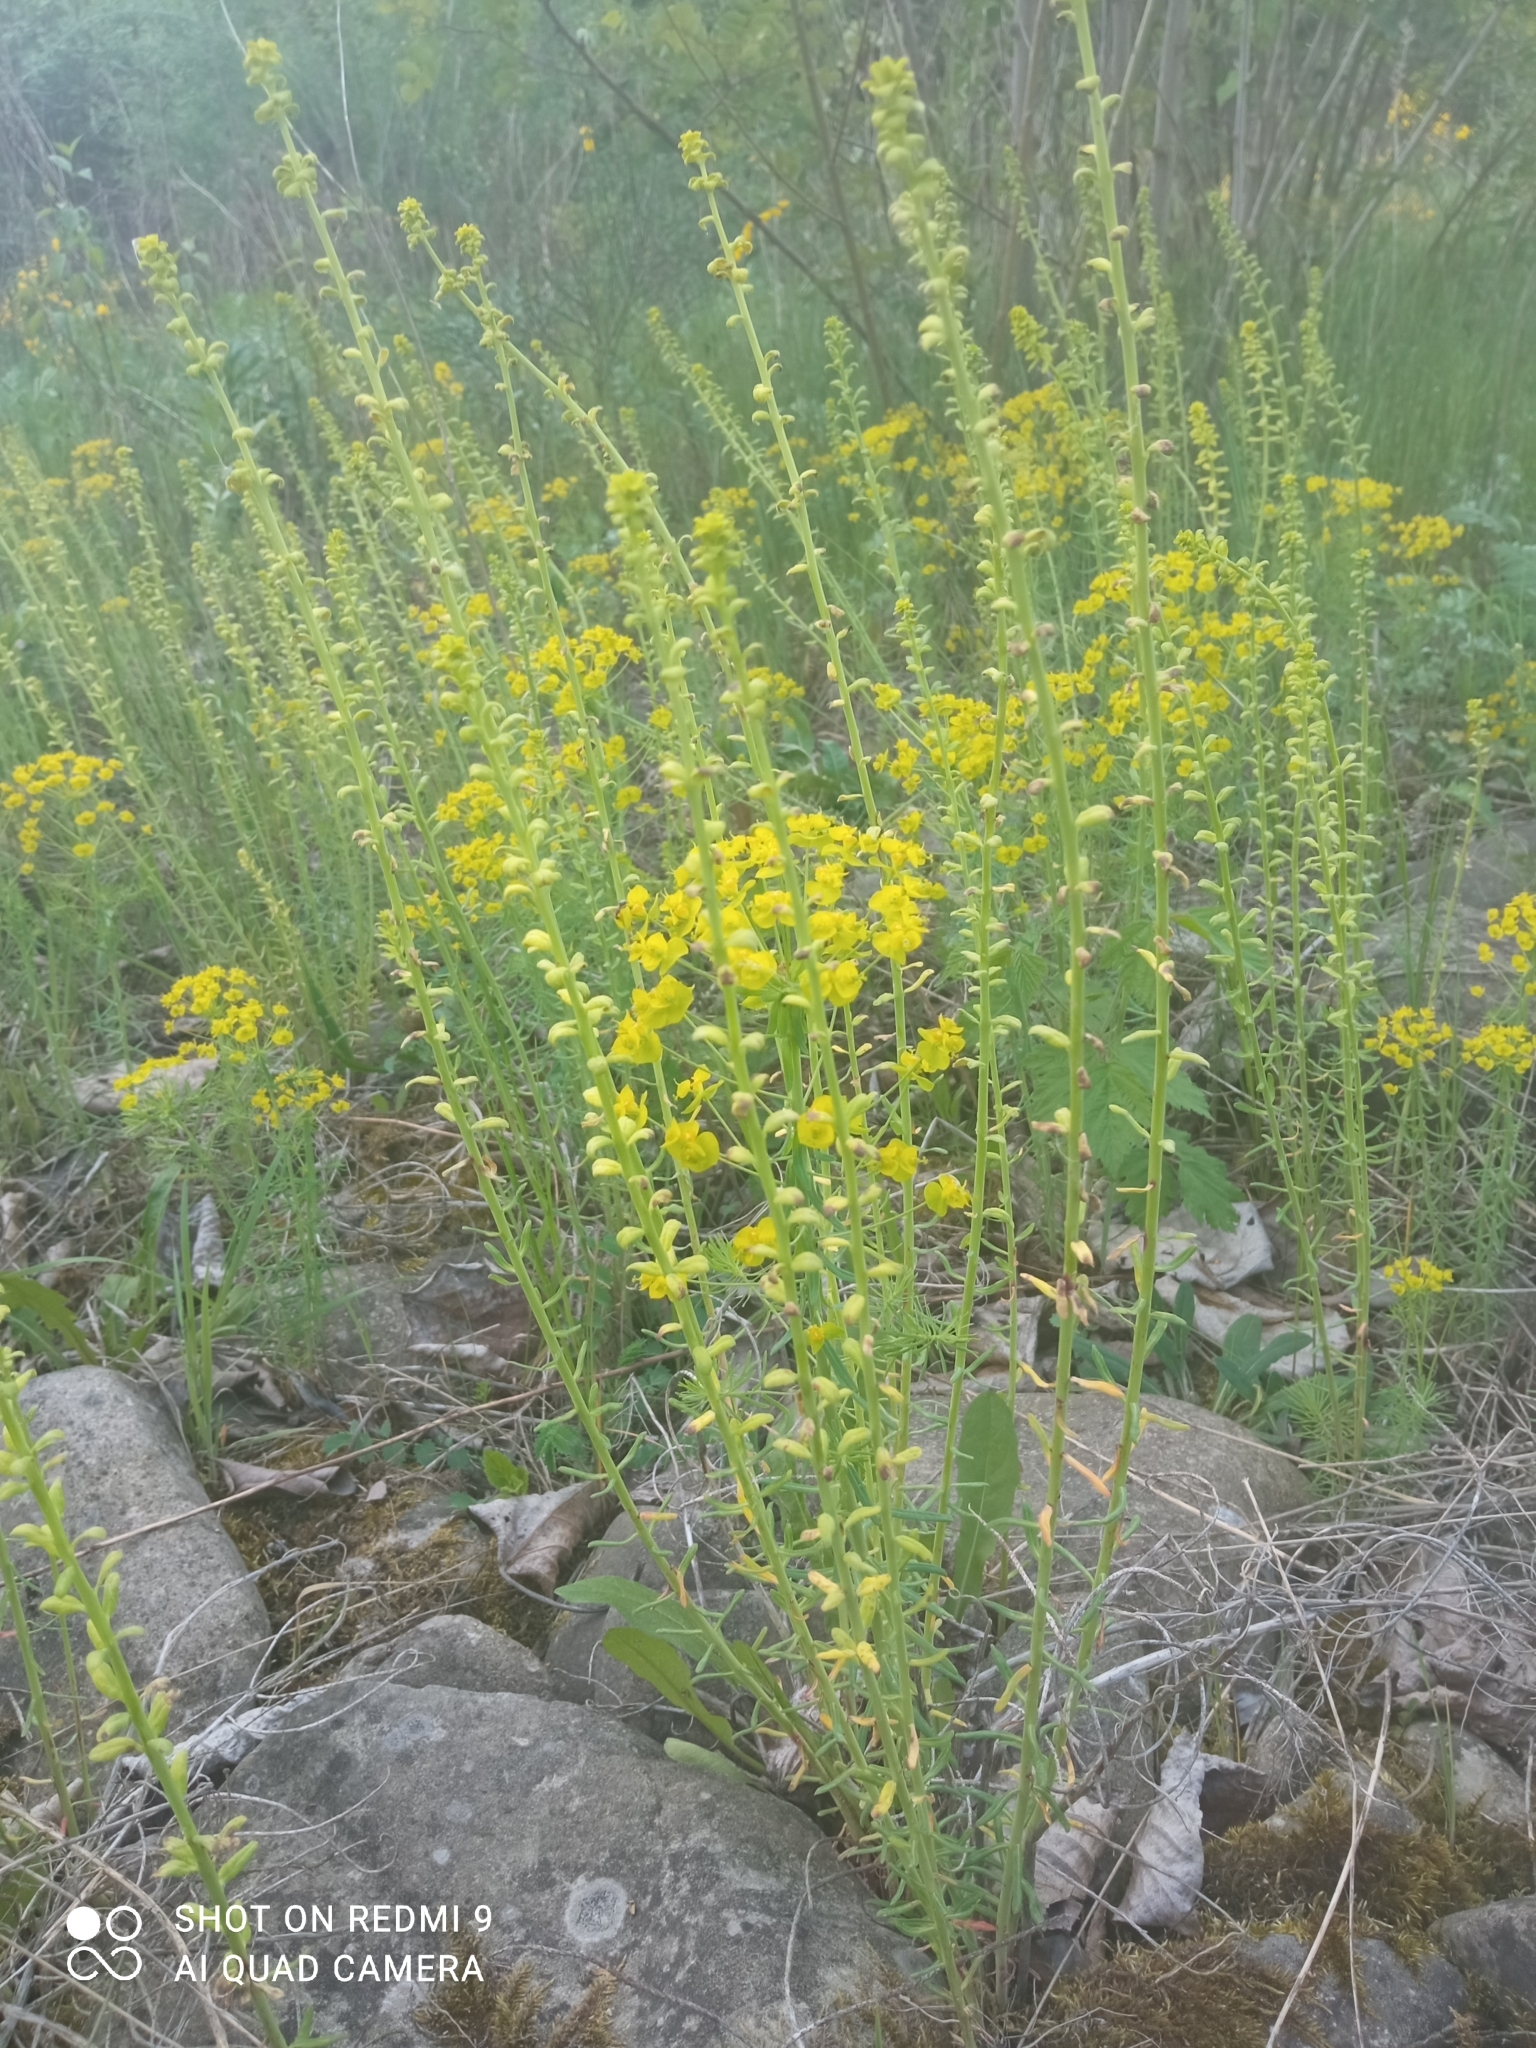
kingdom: Plantae
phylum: Tracheophyta
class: Magnoliopsida
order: Malpighiales
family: Euphorbiaceae
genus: Euphorbia
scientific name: Euphorbia cyparissias
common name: Cypress spurge
